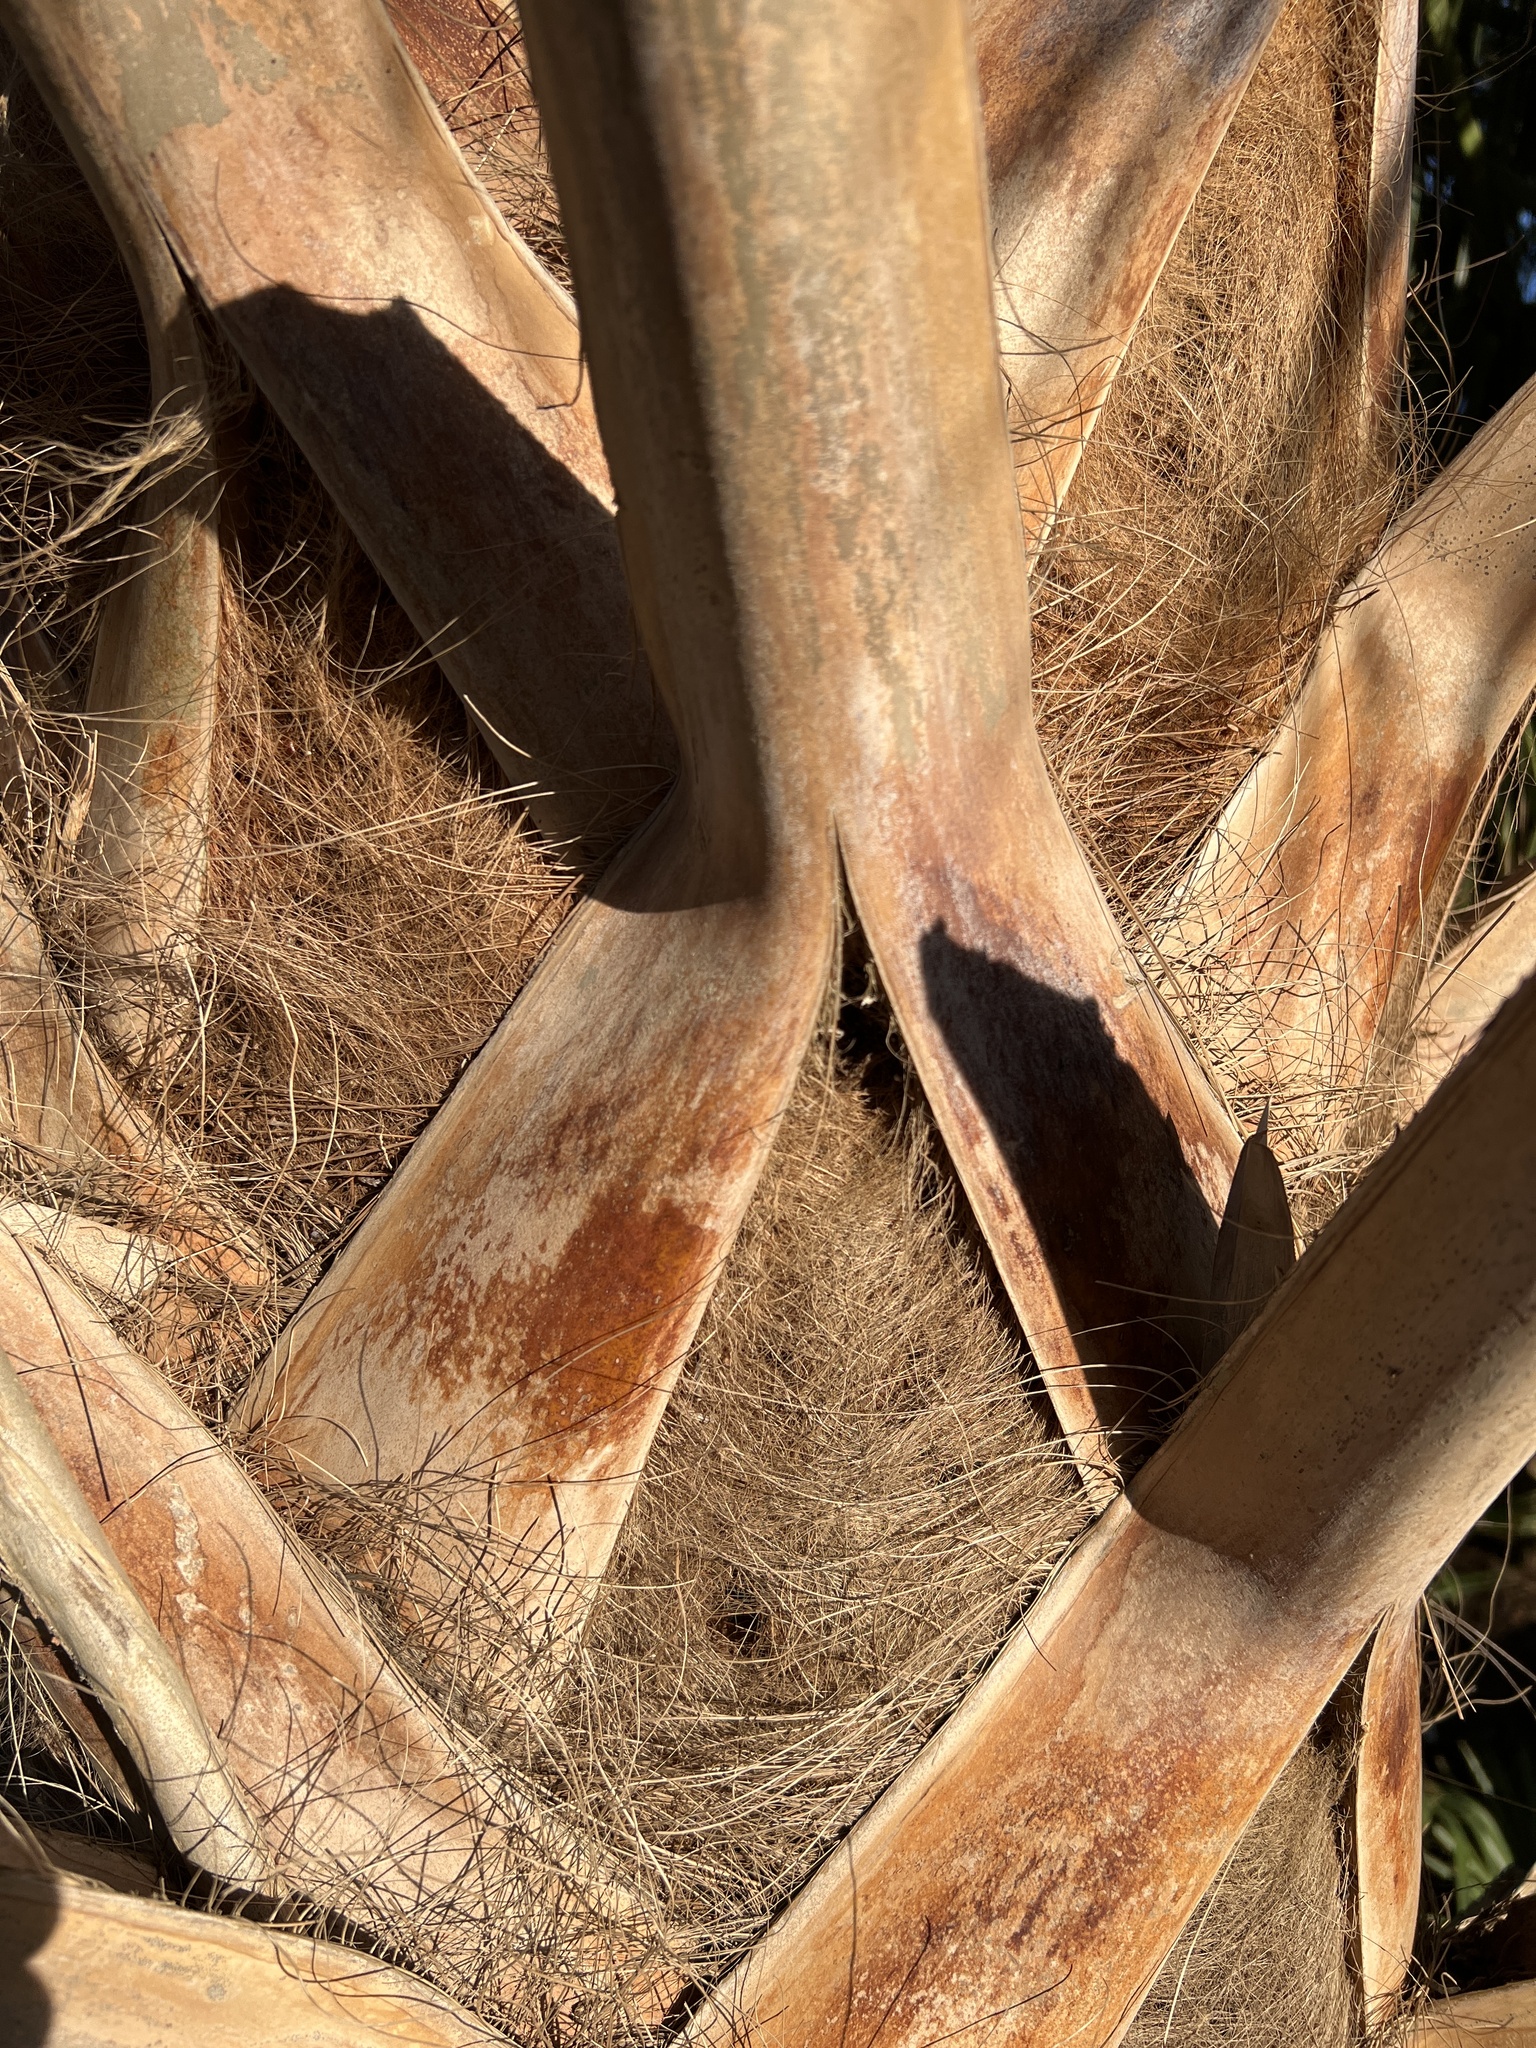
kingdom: Plantae
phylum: Tracheophyta
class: Liliopsida
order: Arecales
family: Arecaceae
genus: Sabal
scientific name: Sabal palmetto
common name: Blue palmetto
